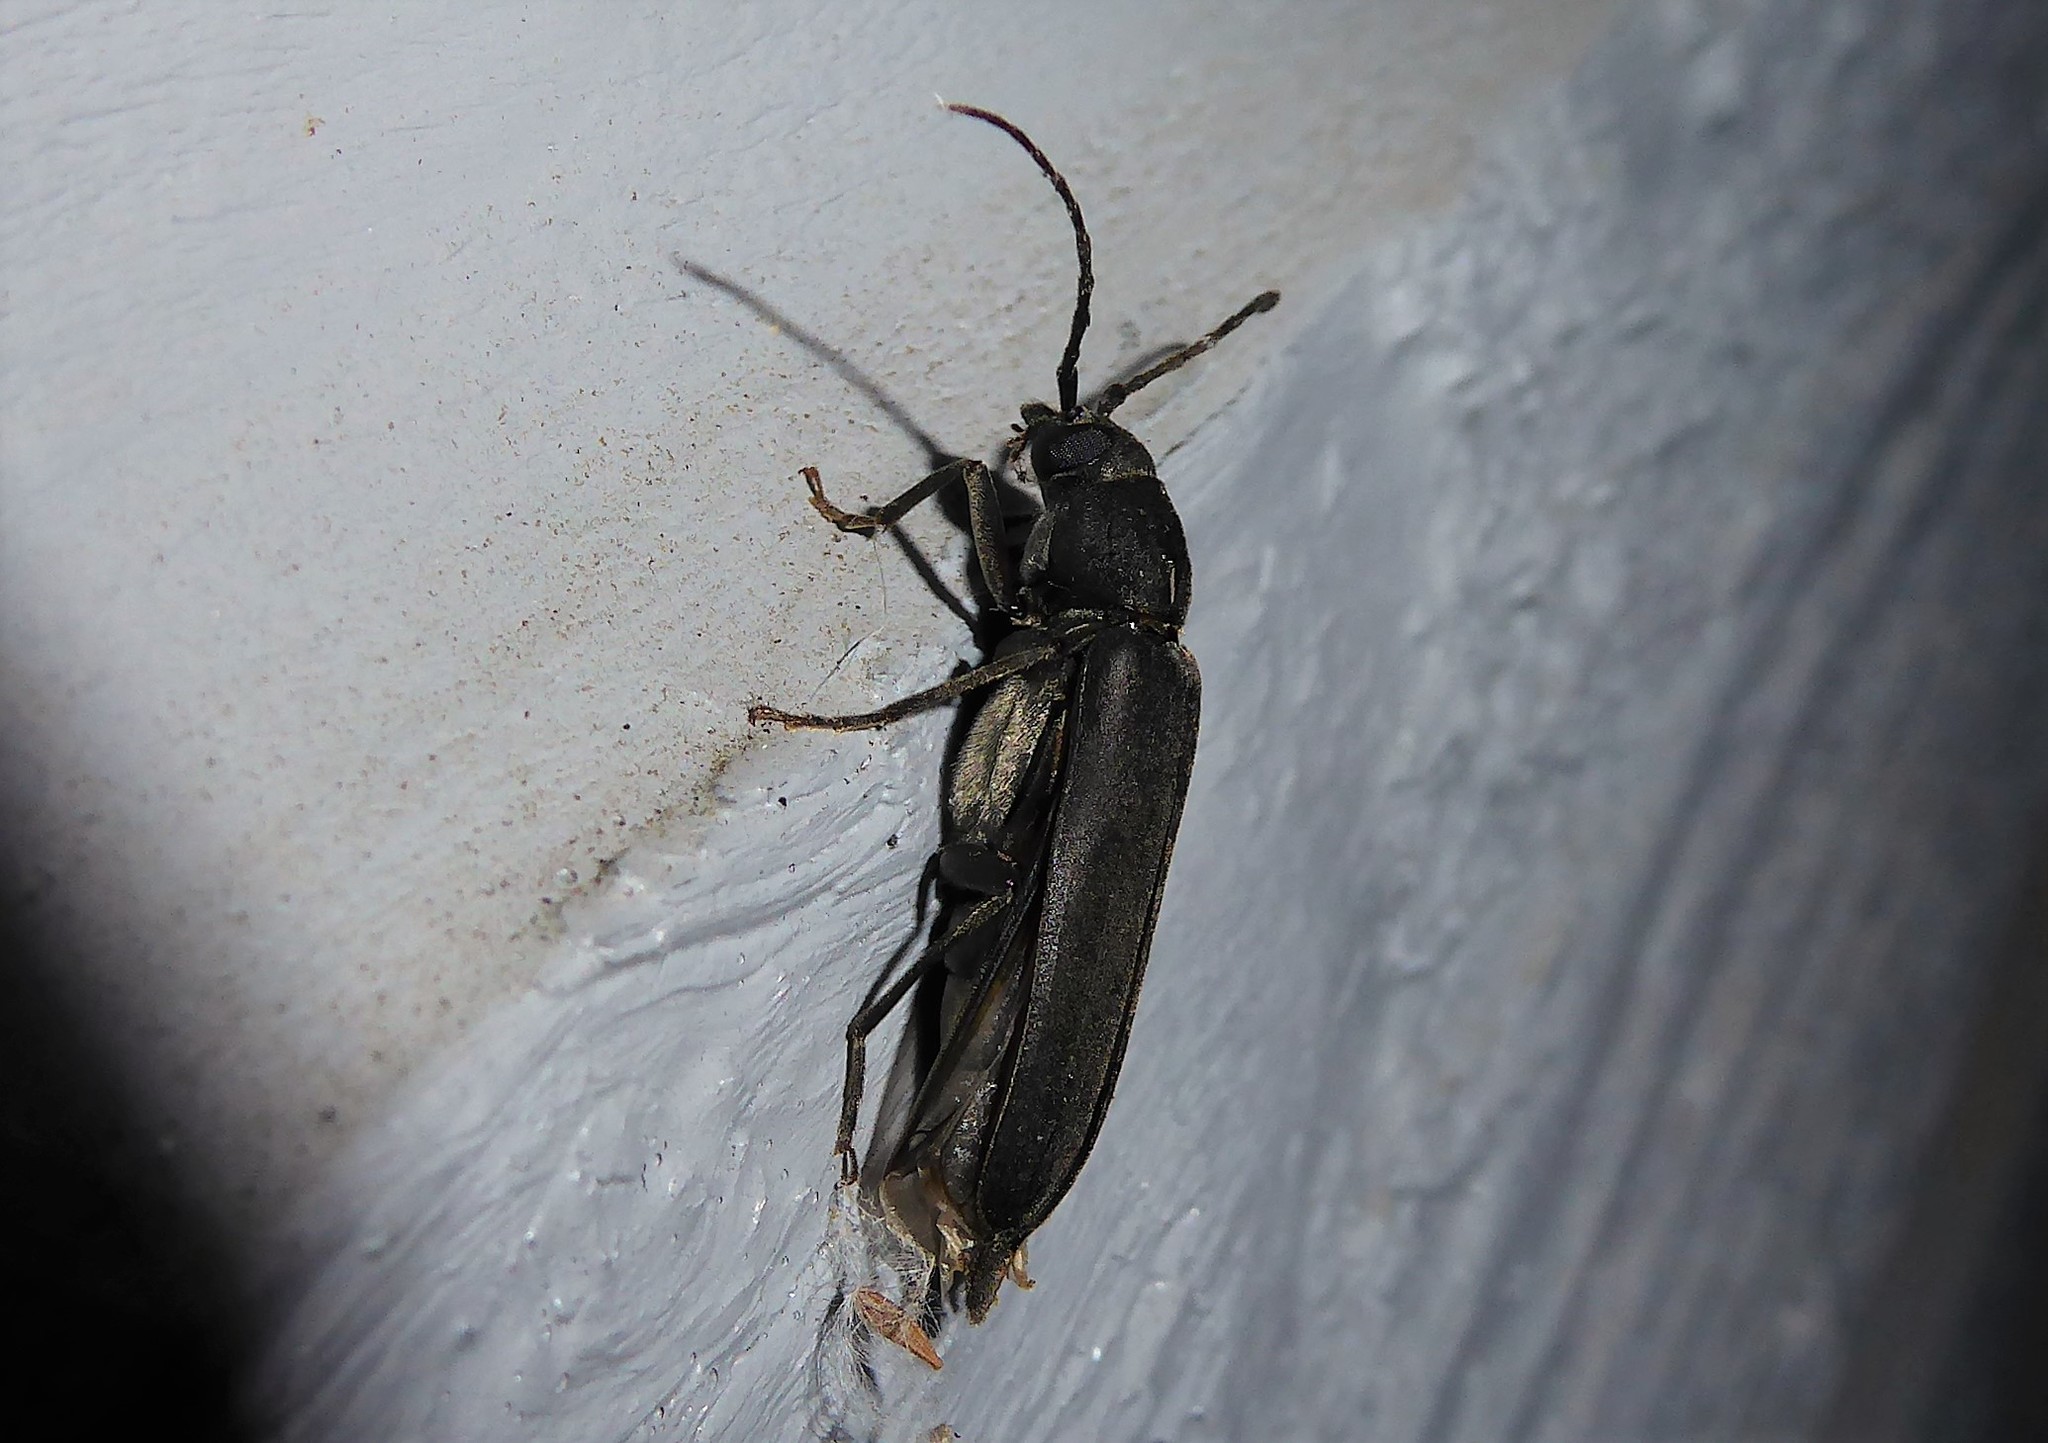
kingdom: Animalia
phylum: Arthropoda
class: Insecta
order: Coleoptera
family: Cerambycidae
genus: Arhopalus
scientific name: Arhopalus ferus
